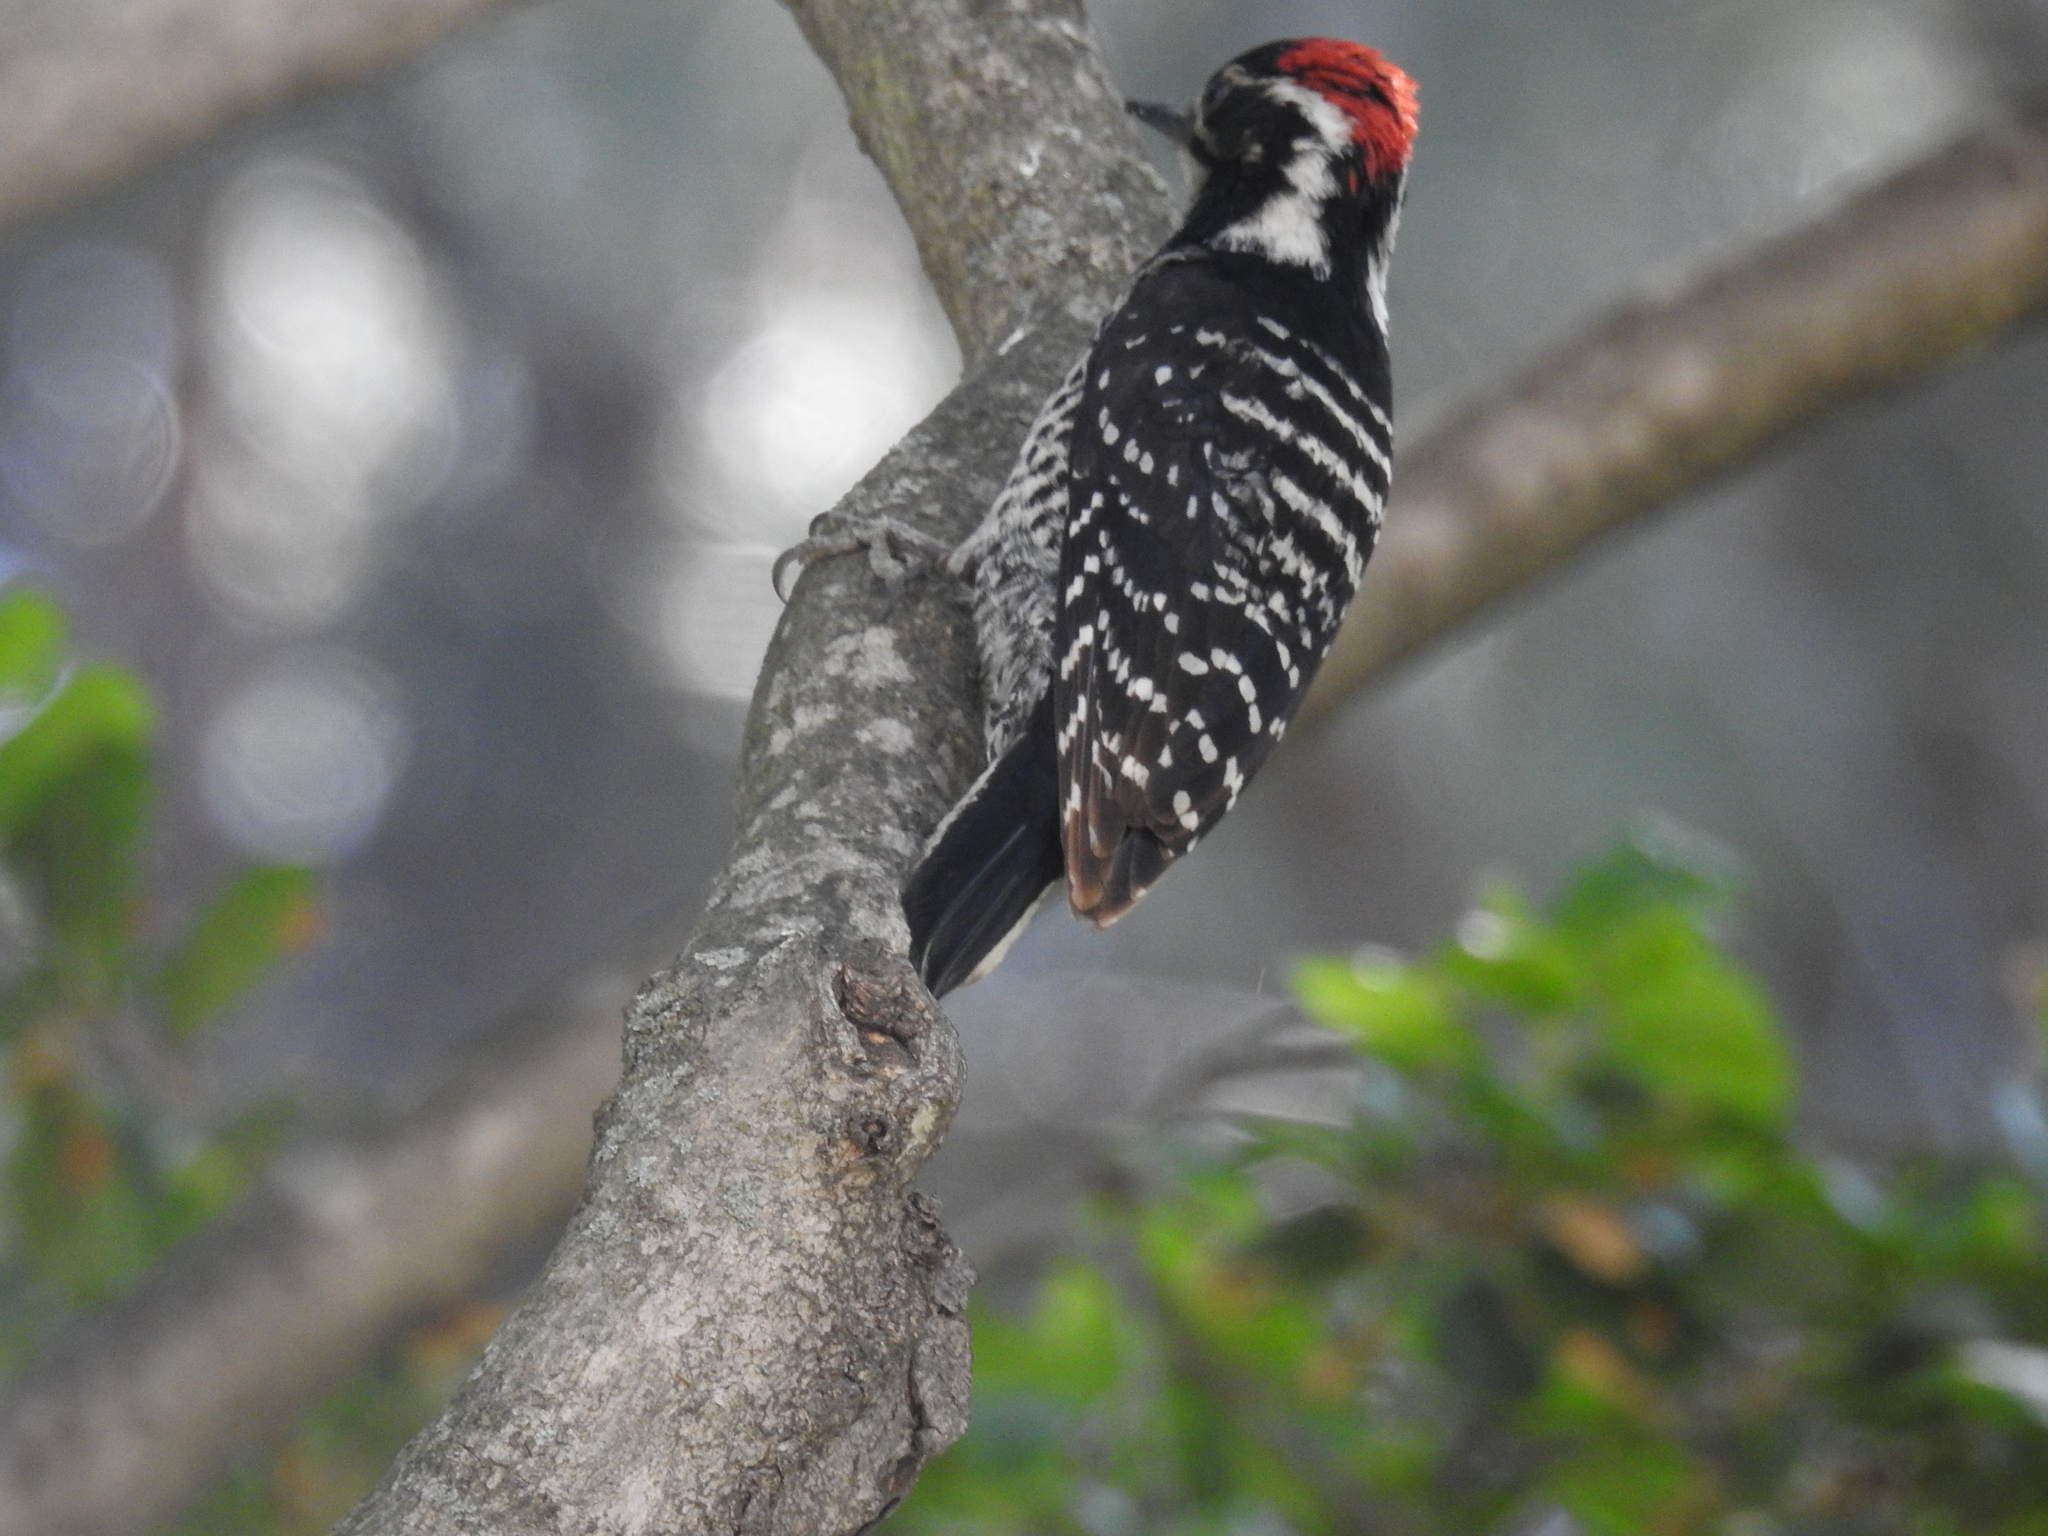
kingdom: Animalia
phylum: Chordata
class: Aves
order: Piciformes
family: Picidae
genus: Dryobates
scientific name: Dryobates nuttallii
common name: Nuttall's woodpecker
